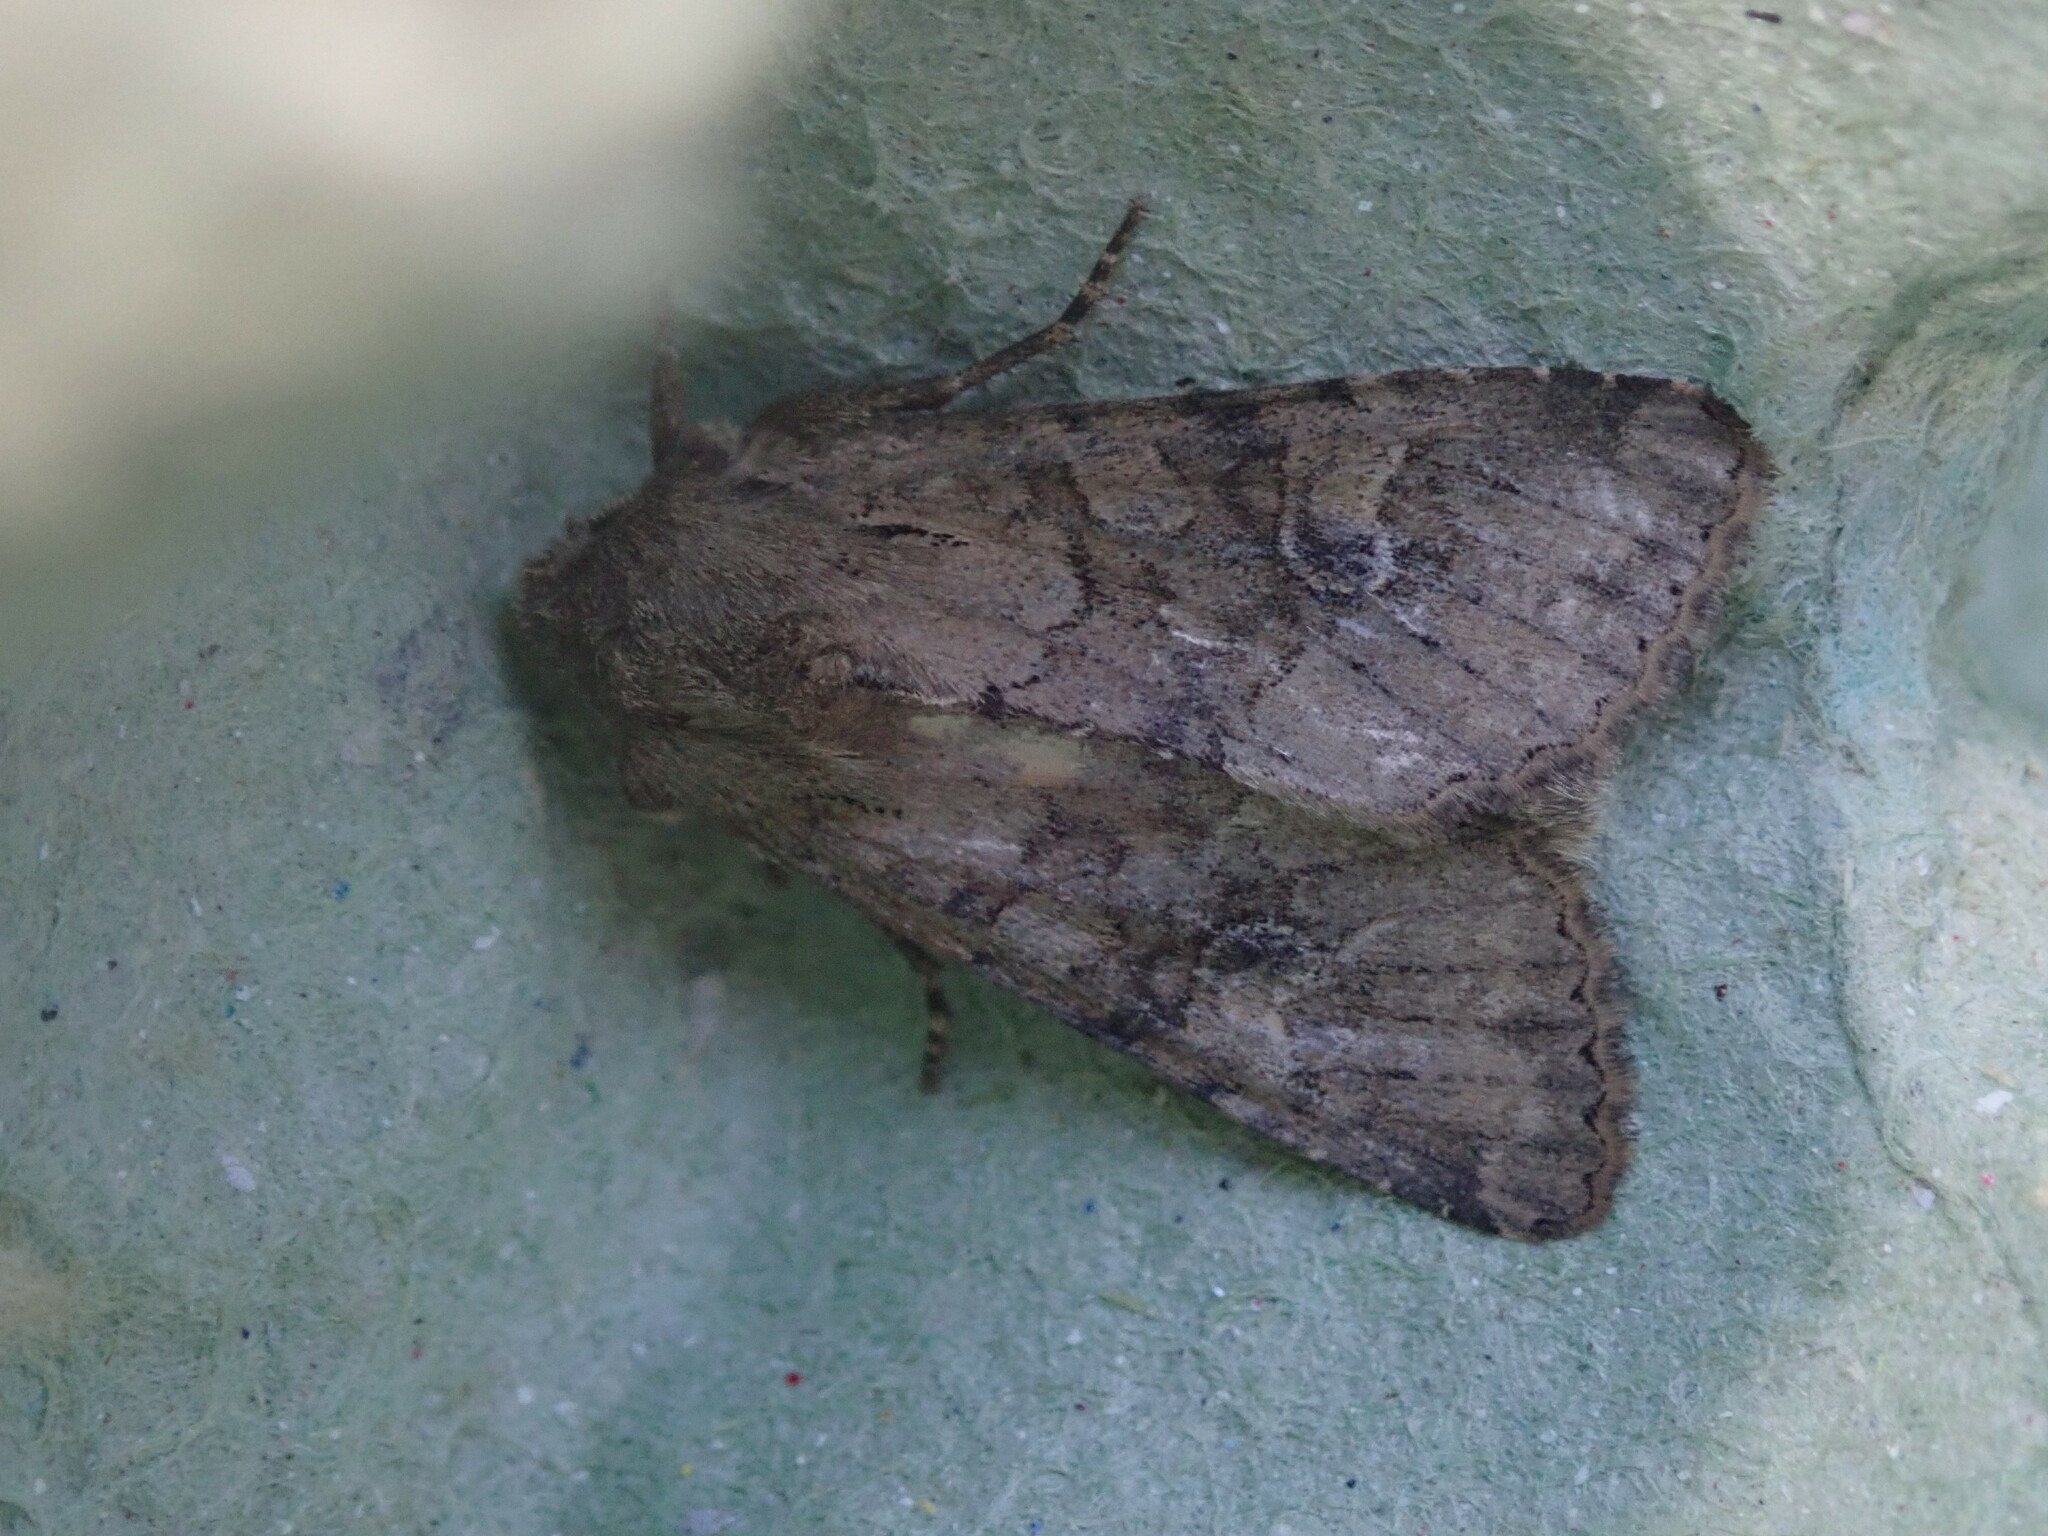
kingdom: Animalia
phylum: Arthropoda
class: Insecta
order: Lepidoptera
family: Noctuidae
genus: Apamea
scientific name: Apamea sordens
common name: Rustic shoulder-knot
